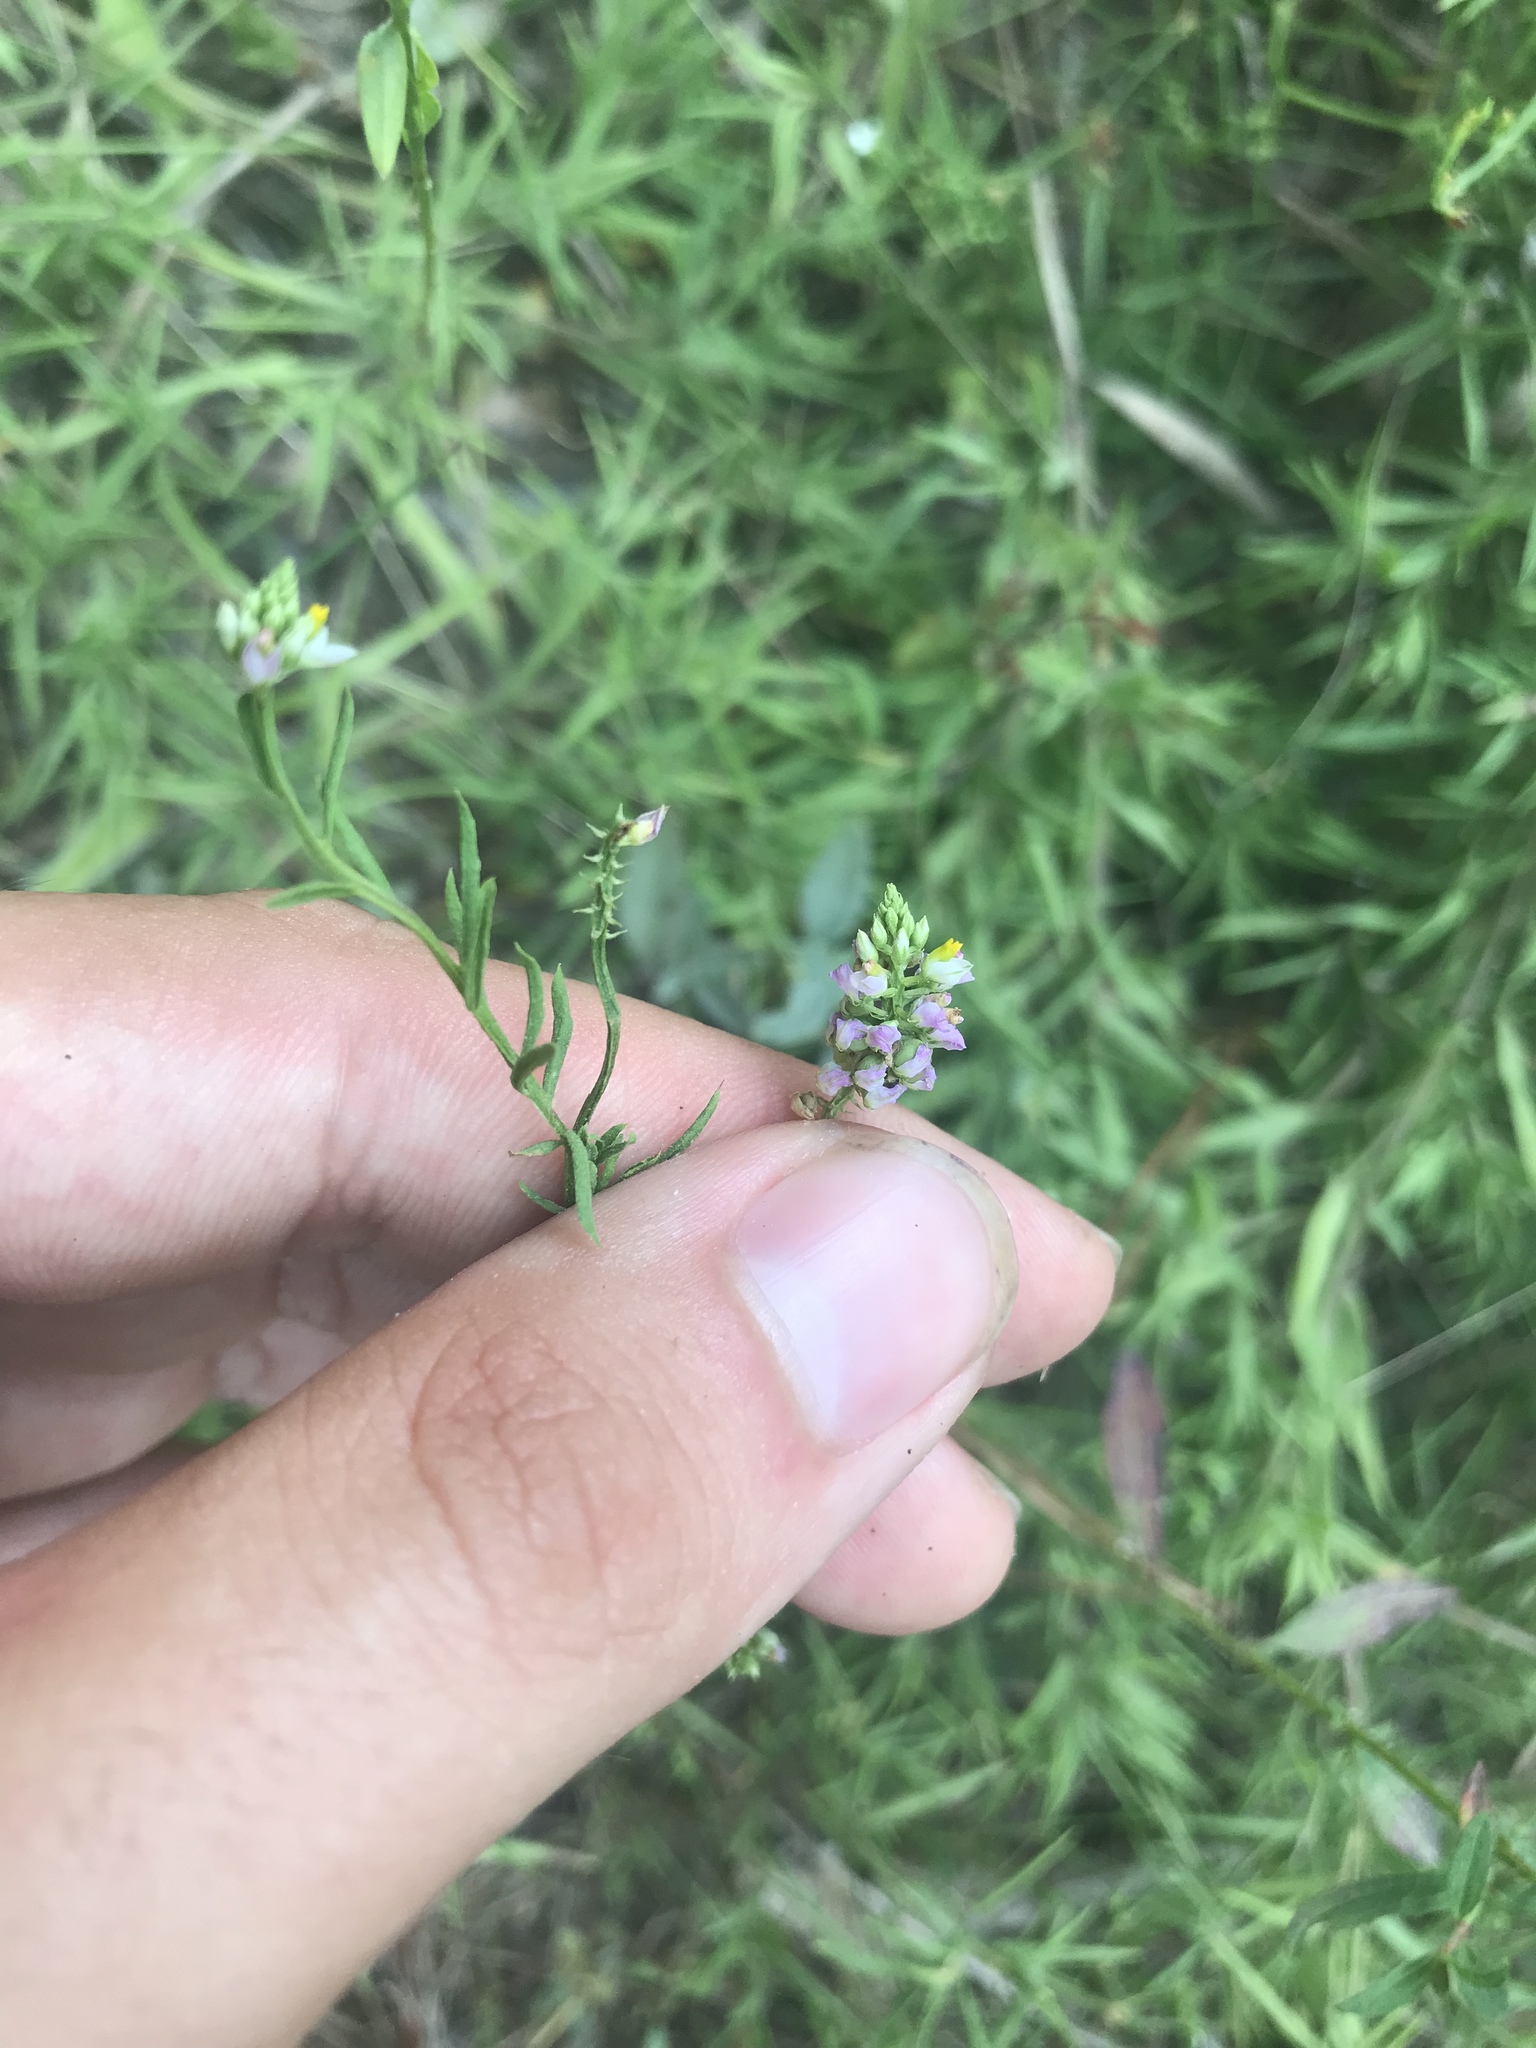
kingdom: Plantae
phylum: Tracheophyta
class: Magnoliopsida
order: Fabales
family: Polygalaceae
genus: Polygala
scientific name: Polygala curtissii
